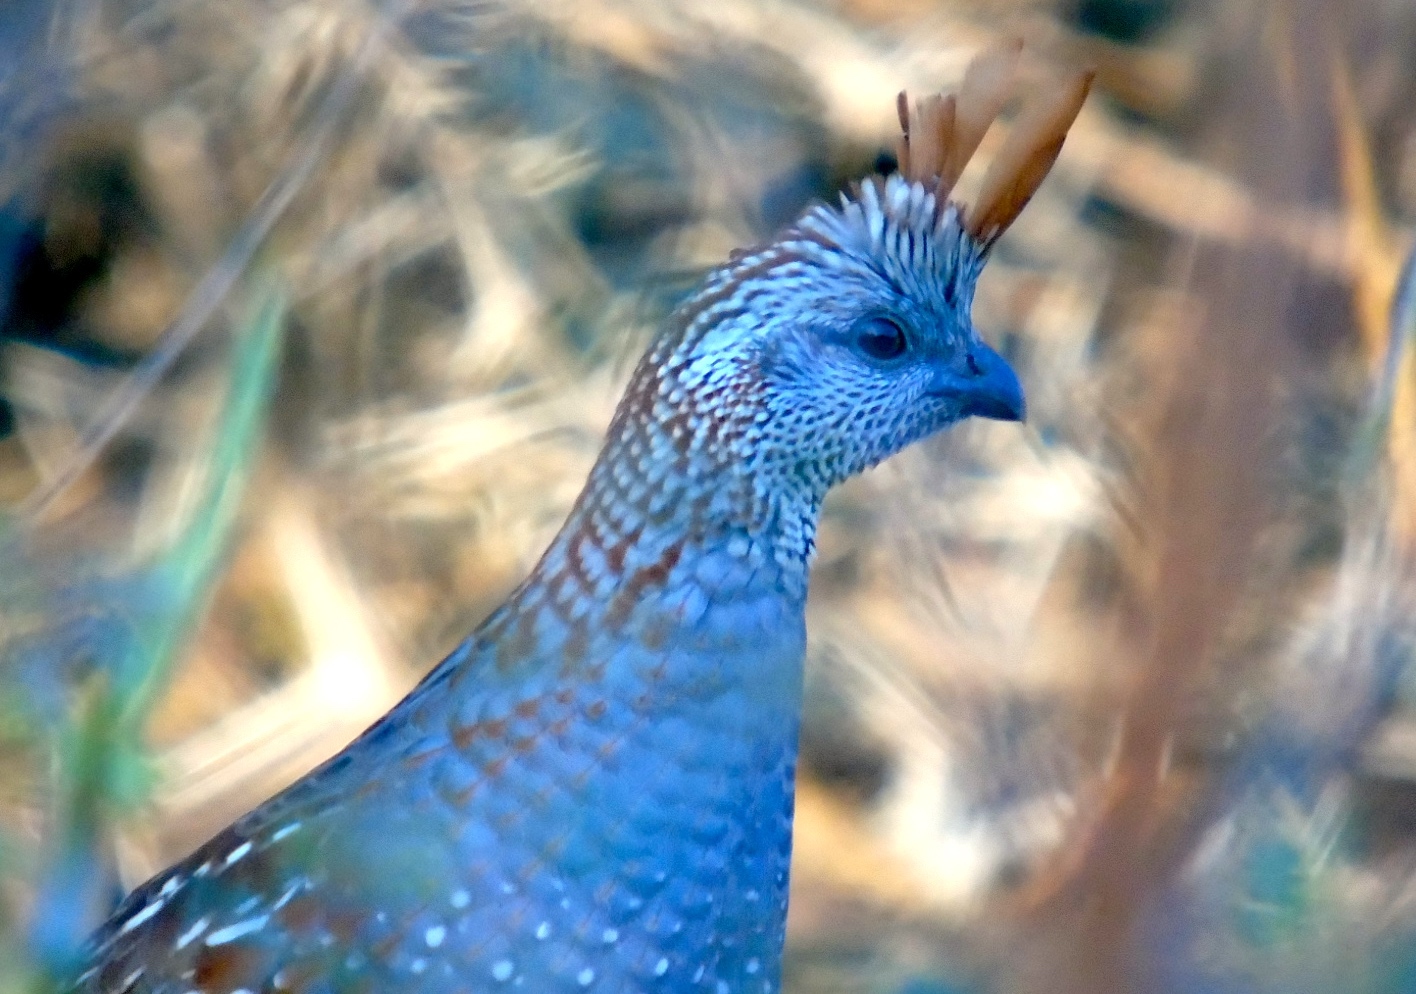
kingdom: Animalia
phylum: Chordata
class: Aves
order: Galliformes
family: Odontophoridae
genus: Callipepla
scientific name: Callipepla douglasii
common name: Elegant quail
